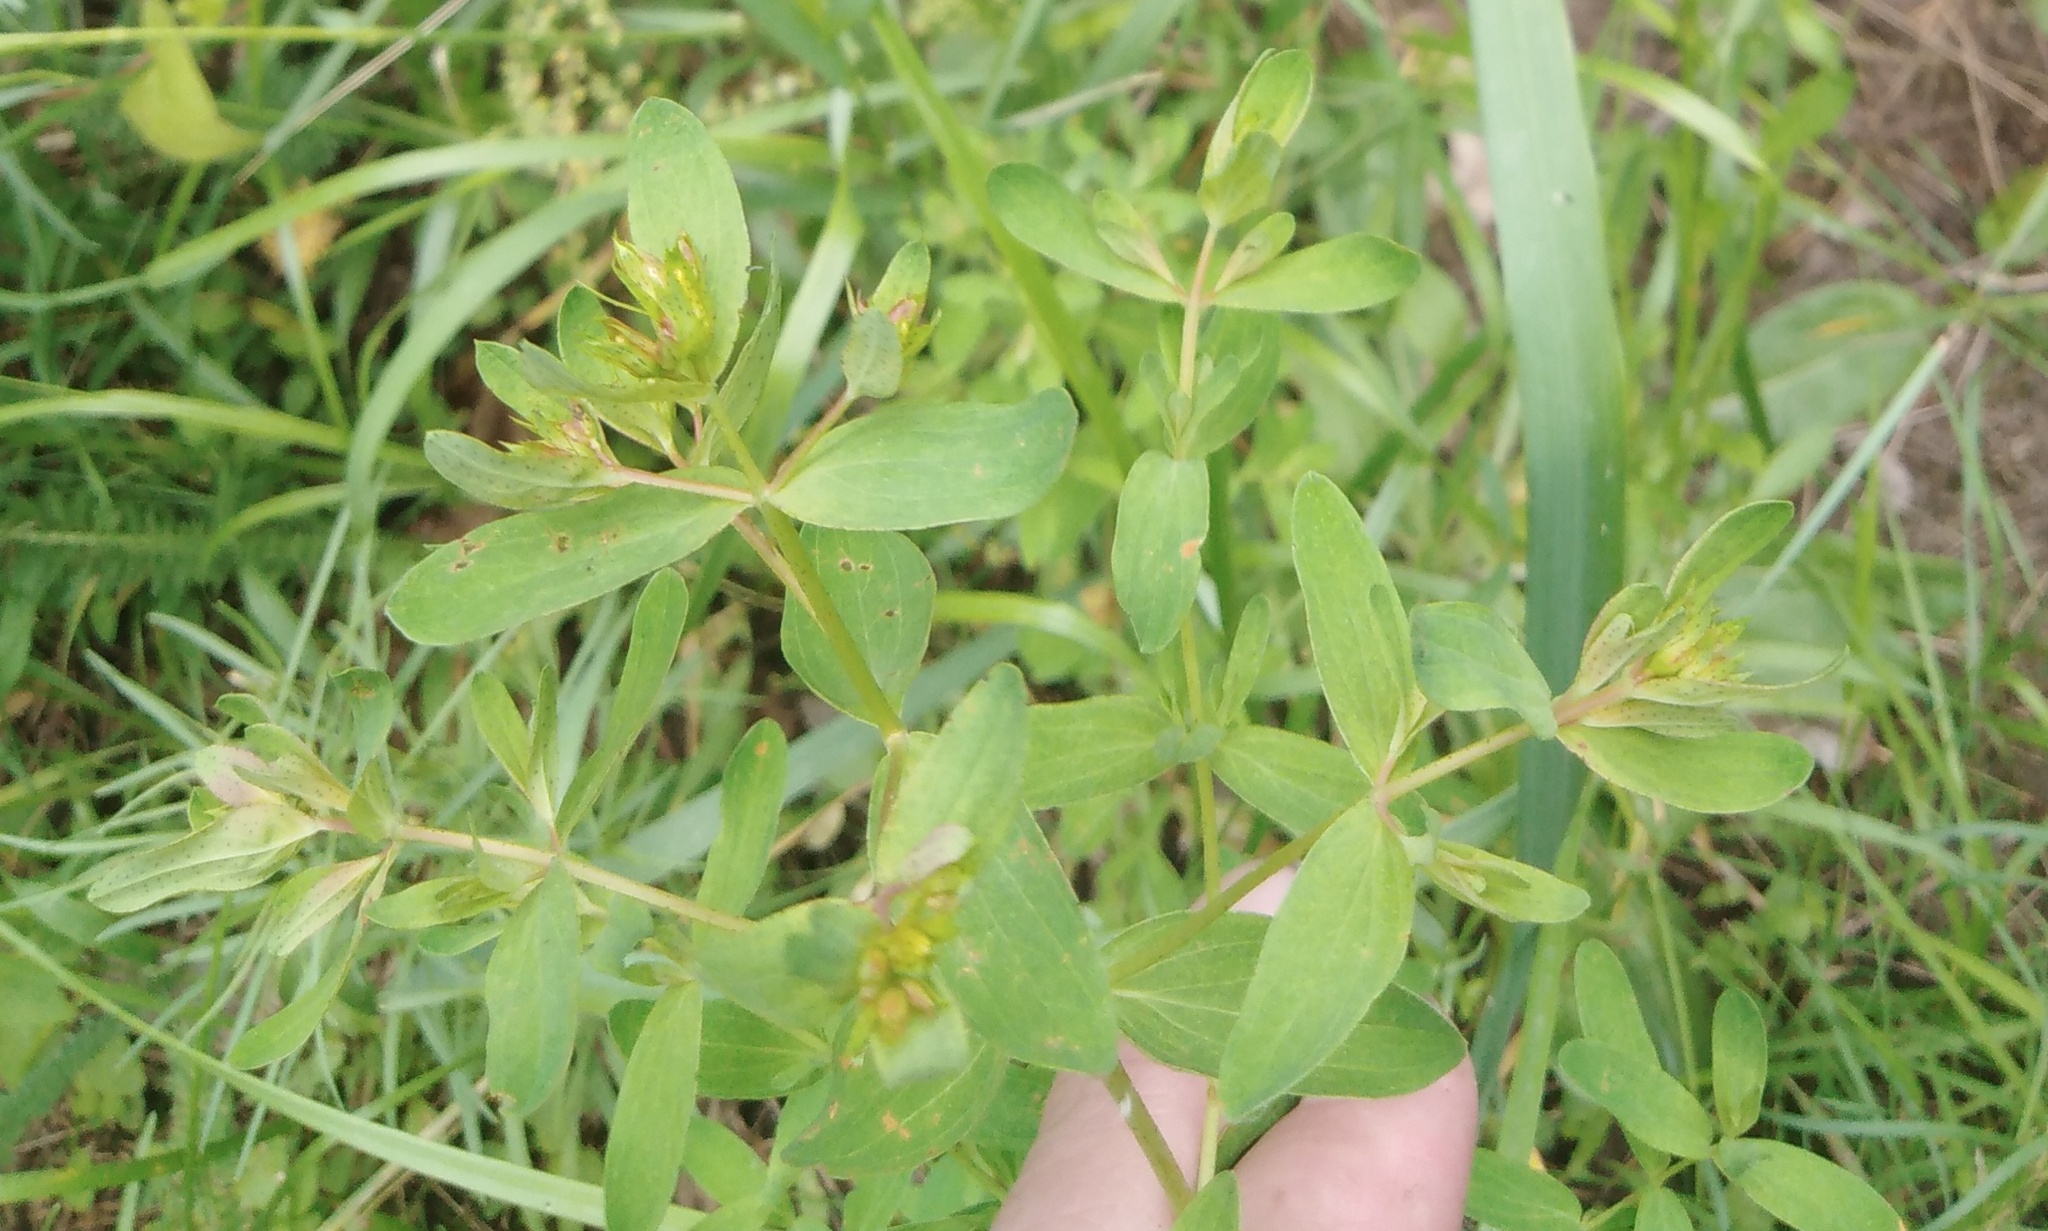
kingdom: Plantae
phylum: Tracheophyta
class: Magnoliopsida
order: Malpighiales
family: Hypericaceae
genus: Hypericum
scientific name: Hypericum perforatum
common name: Common st. johnswort
